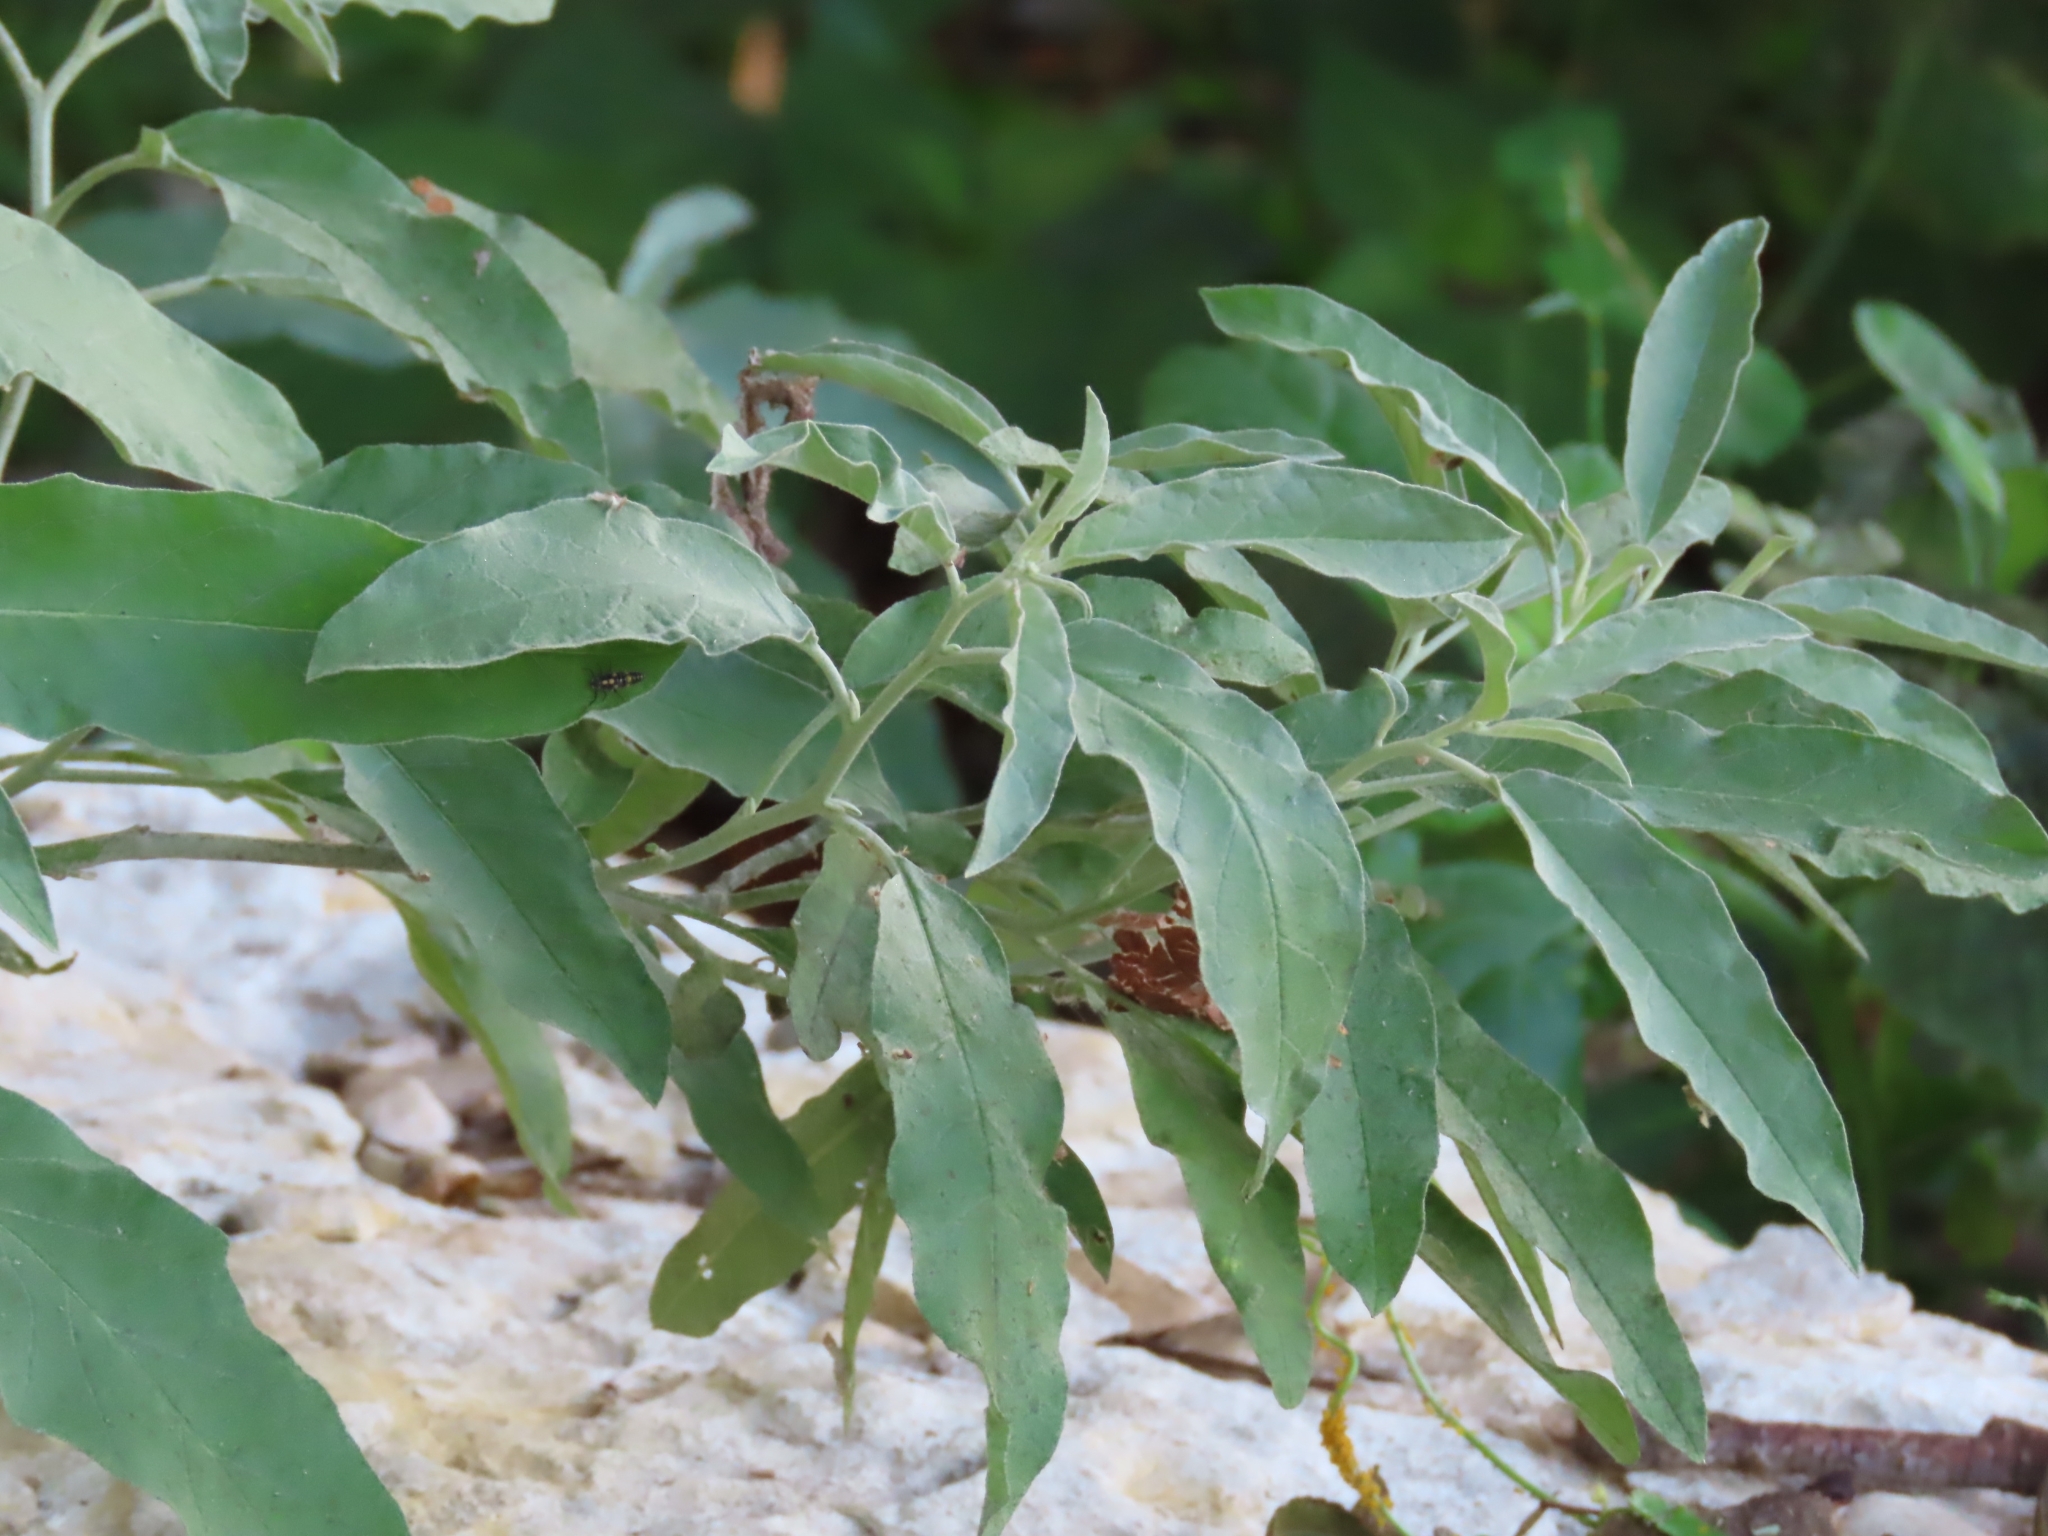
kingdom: Plantae
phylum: Tracheophyta
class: Magnoliopsida
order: Solanales
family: Solanaceae
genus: Solanum
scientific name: Solanum elaeagnifolium
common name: Silverleaf nightshade
